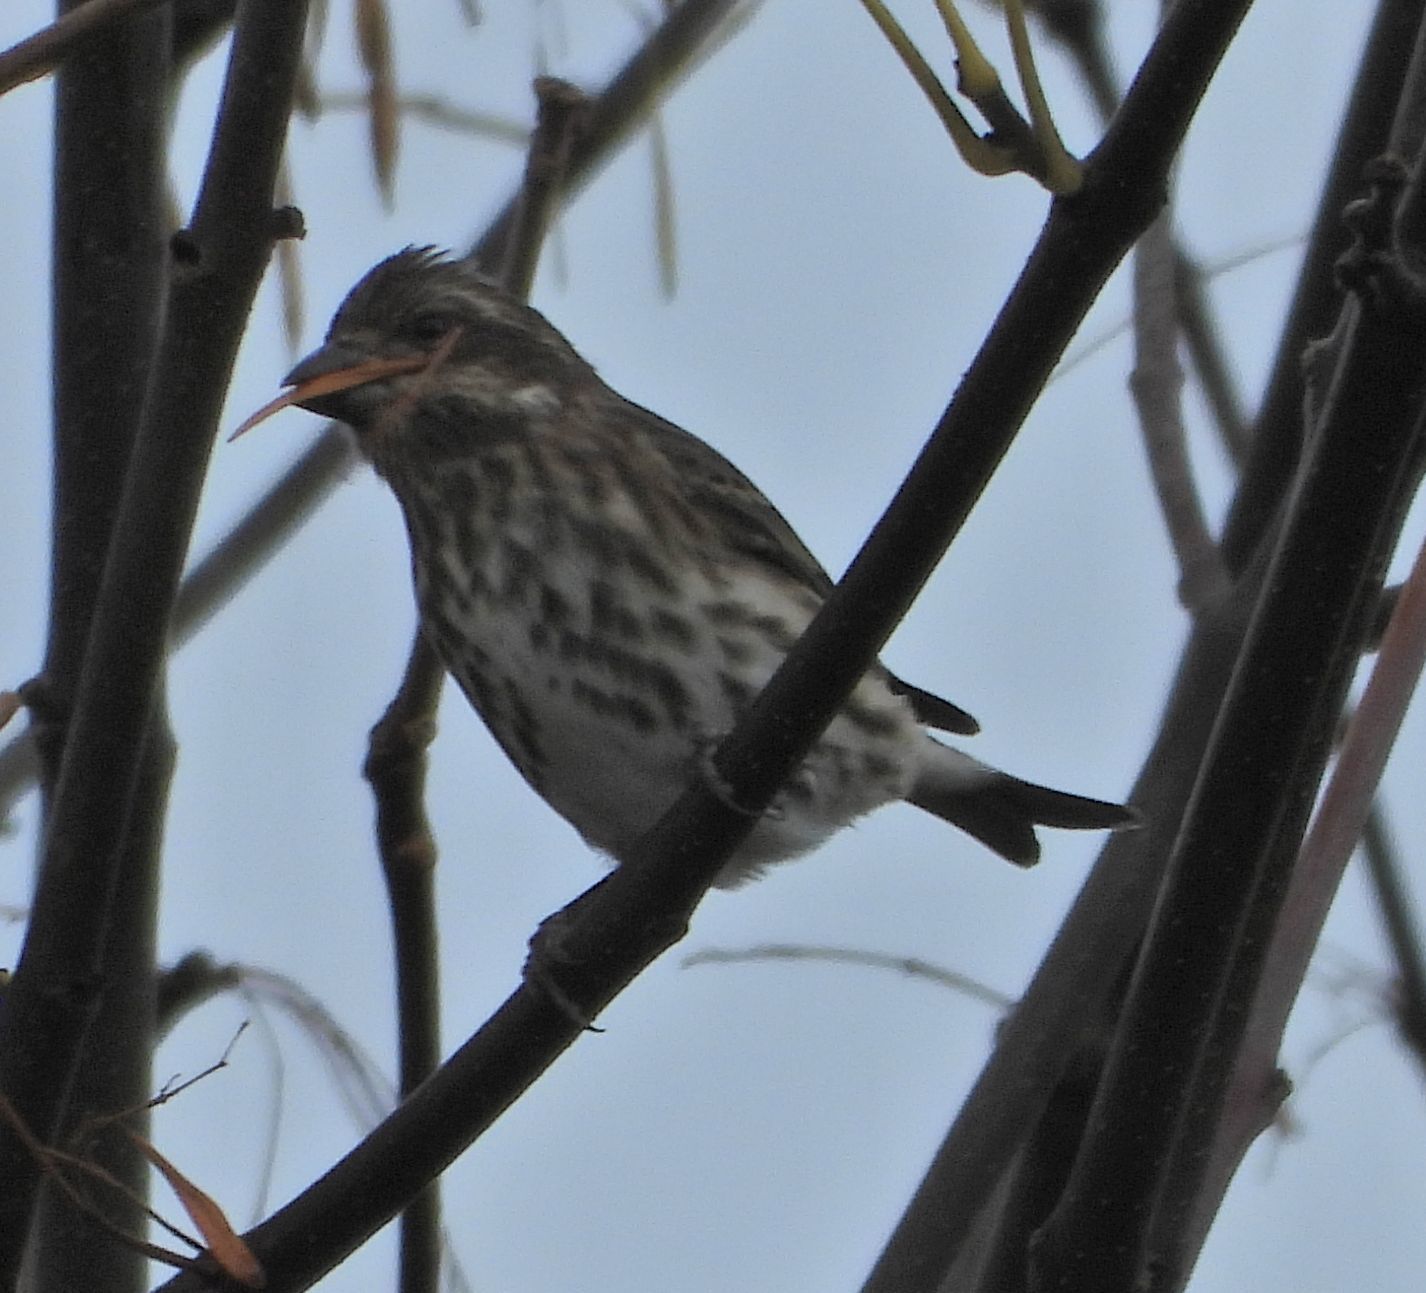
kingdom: Animalia
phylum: Chordata
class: Aves
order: Passeriformes
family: Fringillidae
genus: Haemorhous
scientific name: Haemorhous purpureus
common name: Purple finch
